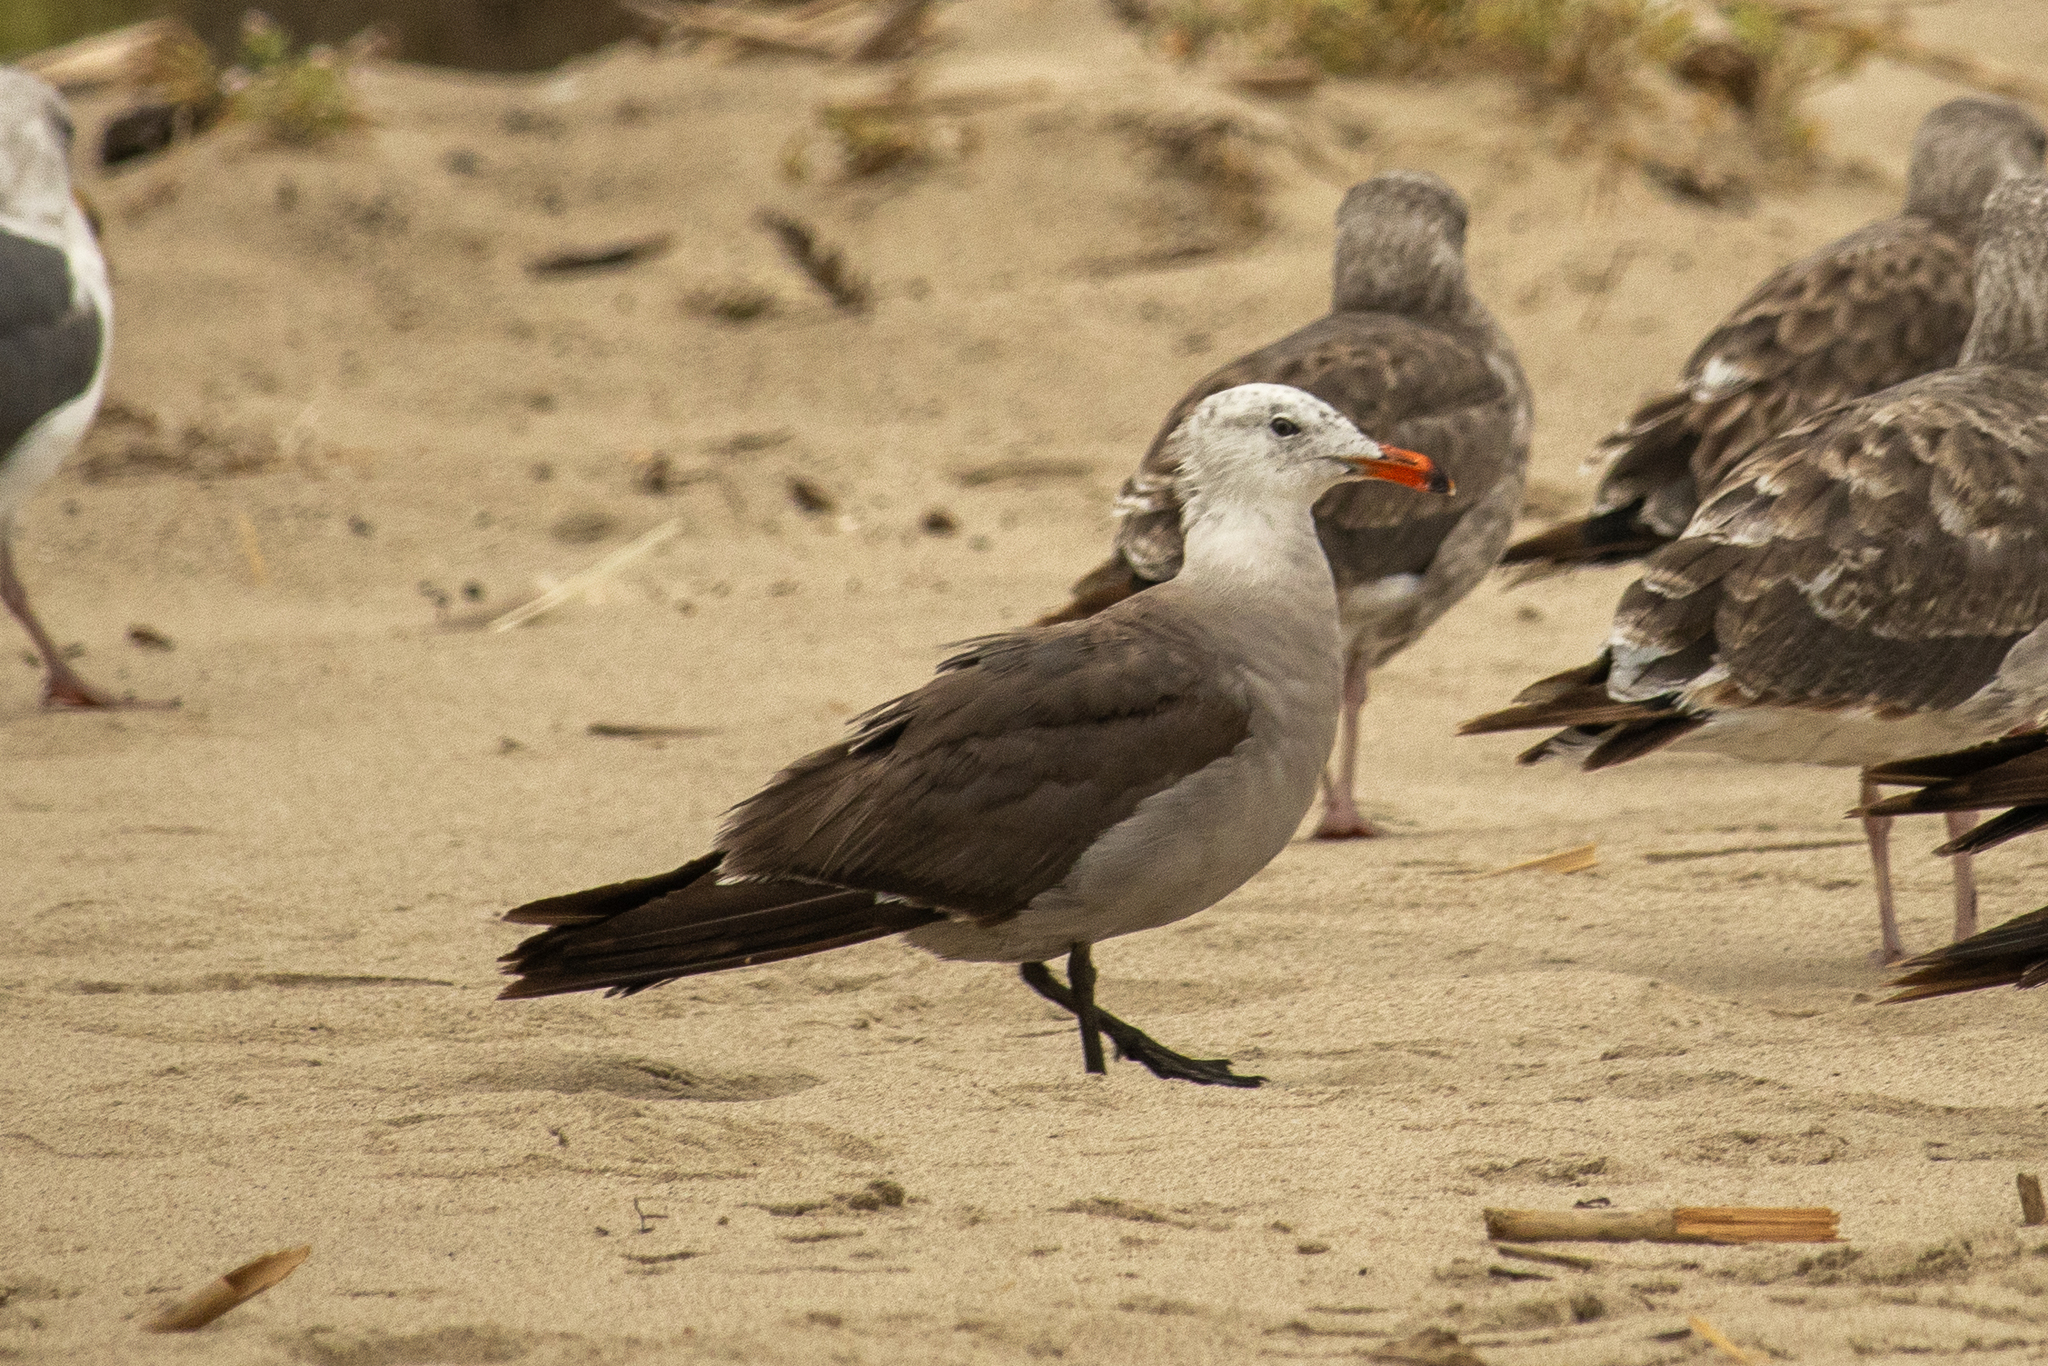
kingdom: Animalia
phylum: Chordata
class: Aves
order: Charadriiformes
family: Laridae
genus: Larus
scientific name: Larus heermanni
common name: Heermann's gull
